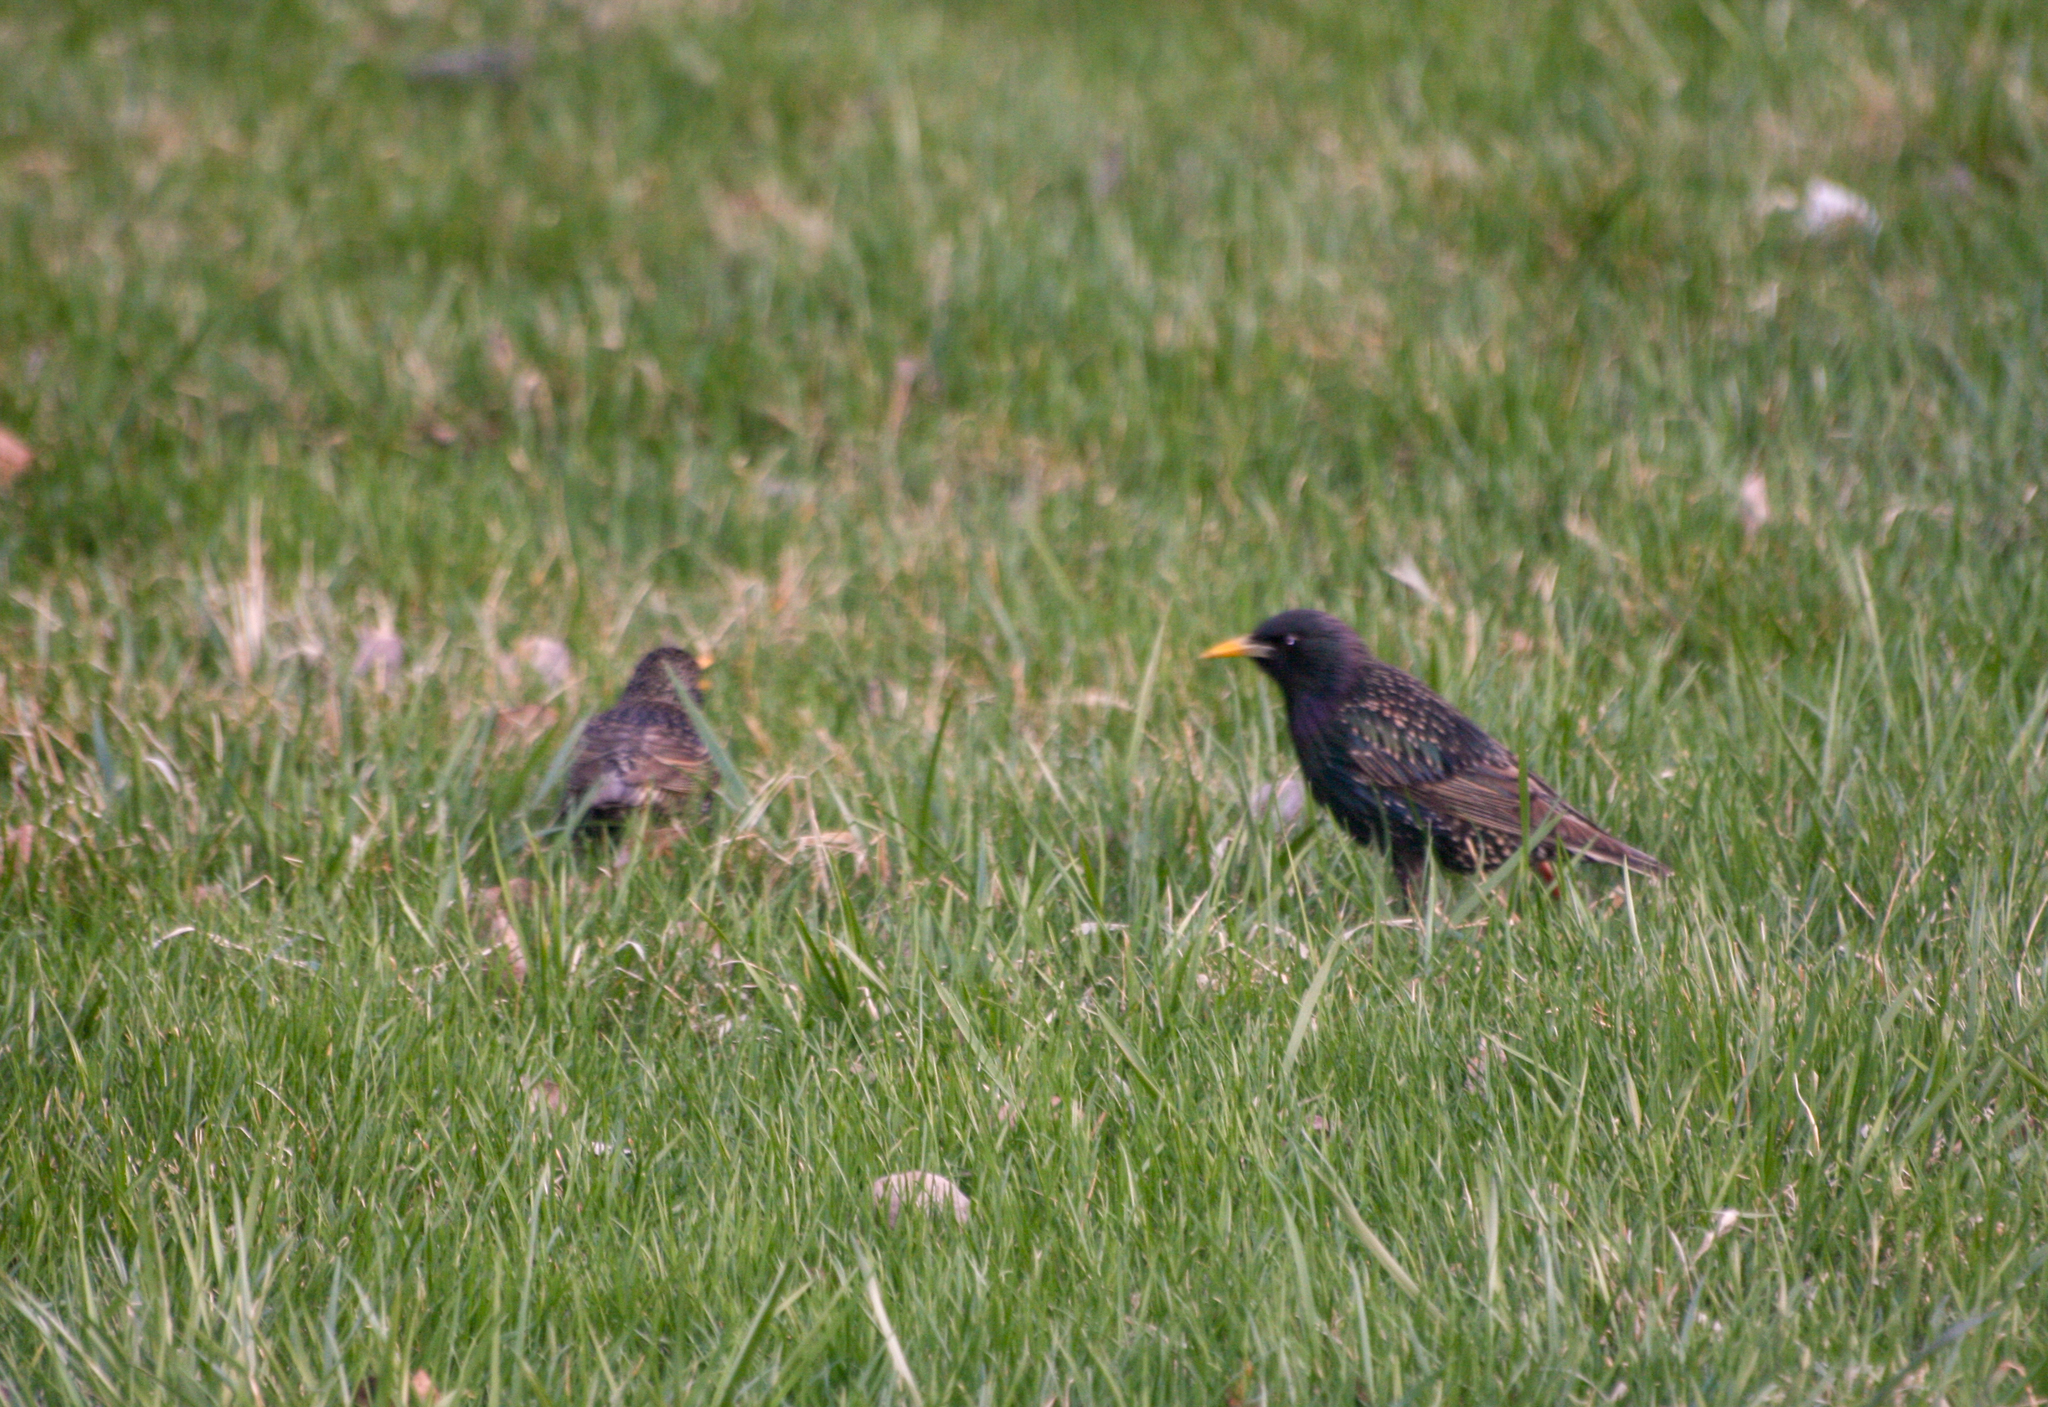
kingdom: Animalia
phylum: Chordata
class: Aves
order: Passeriformes
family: Sturnidae
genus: Sturnus
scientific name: Sturnus vulgaris
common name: Common starling
